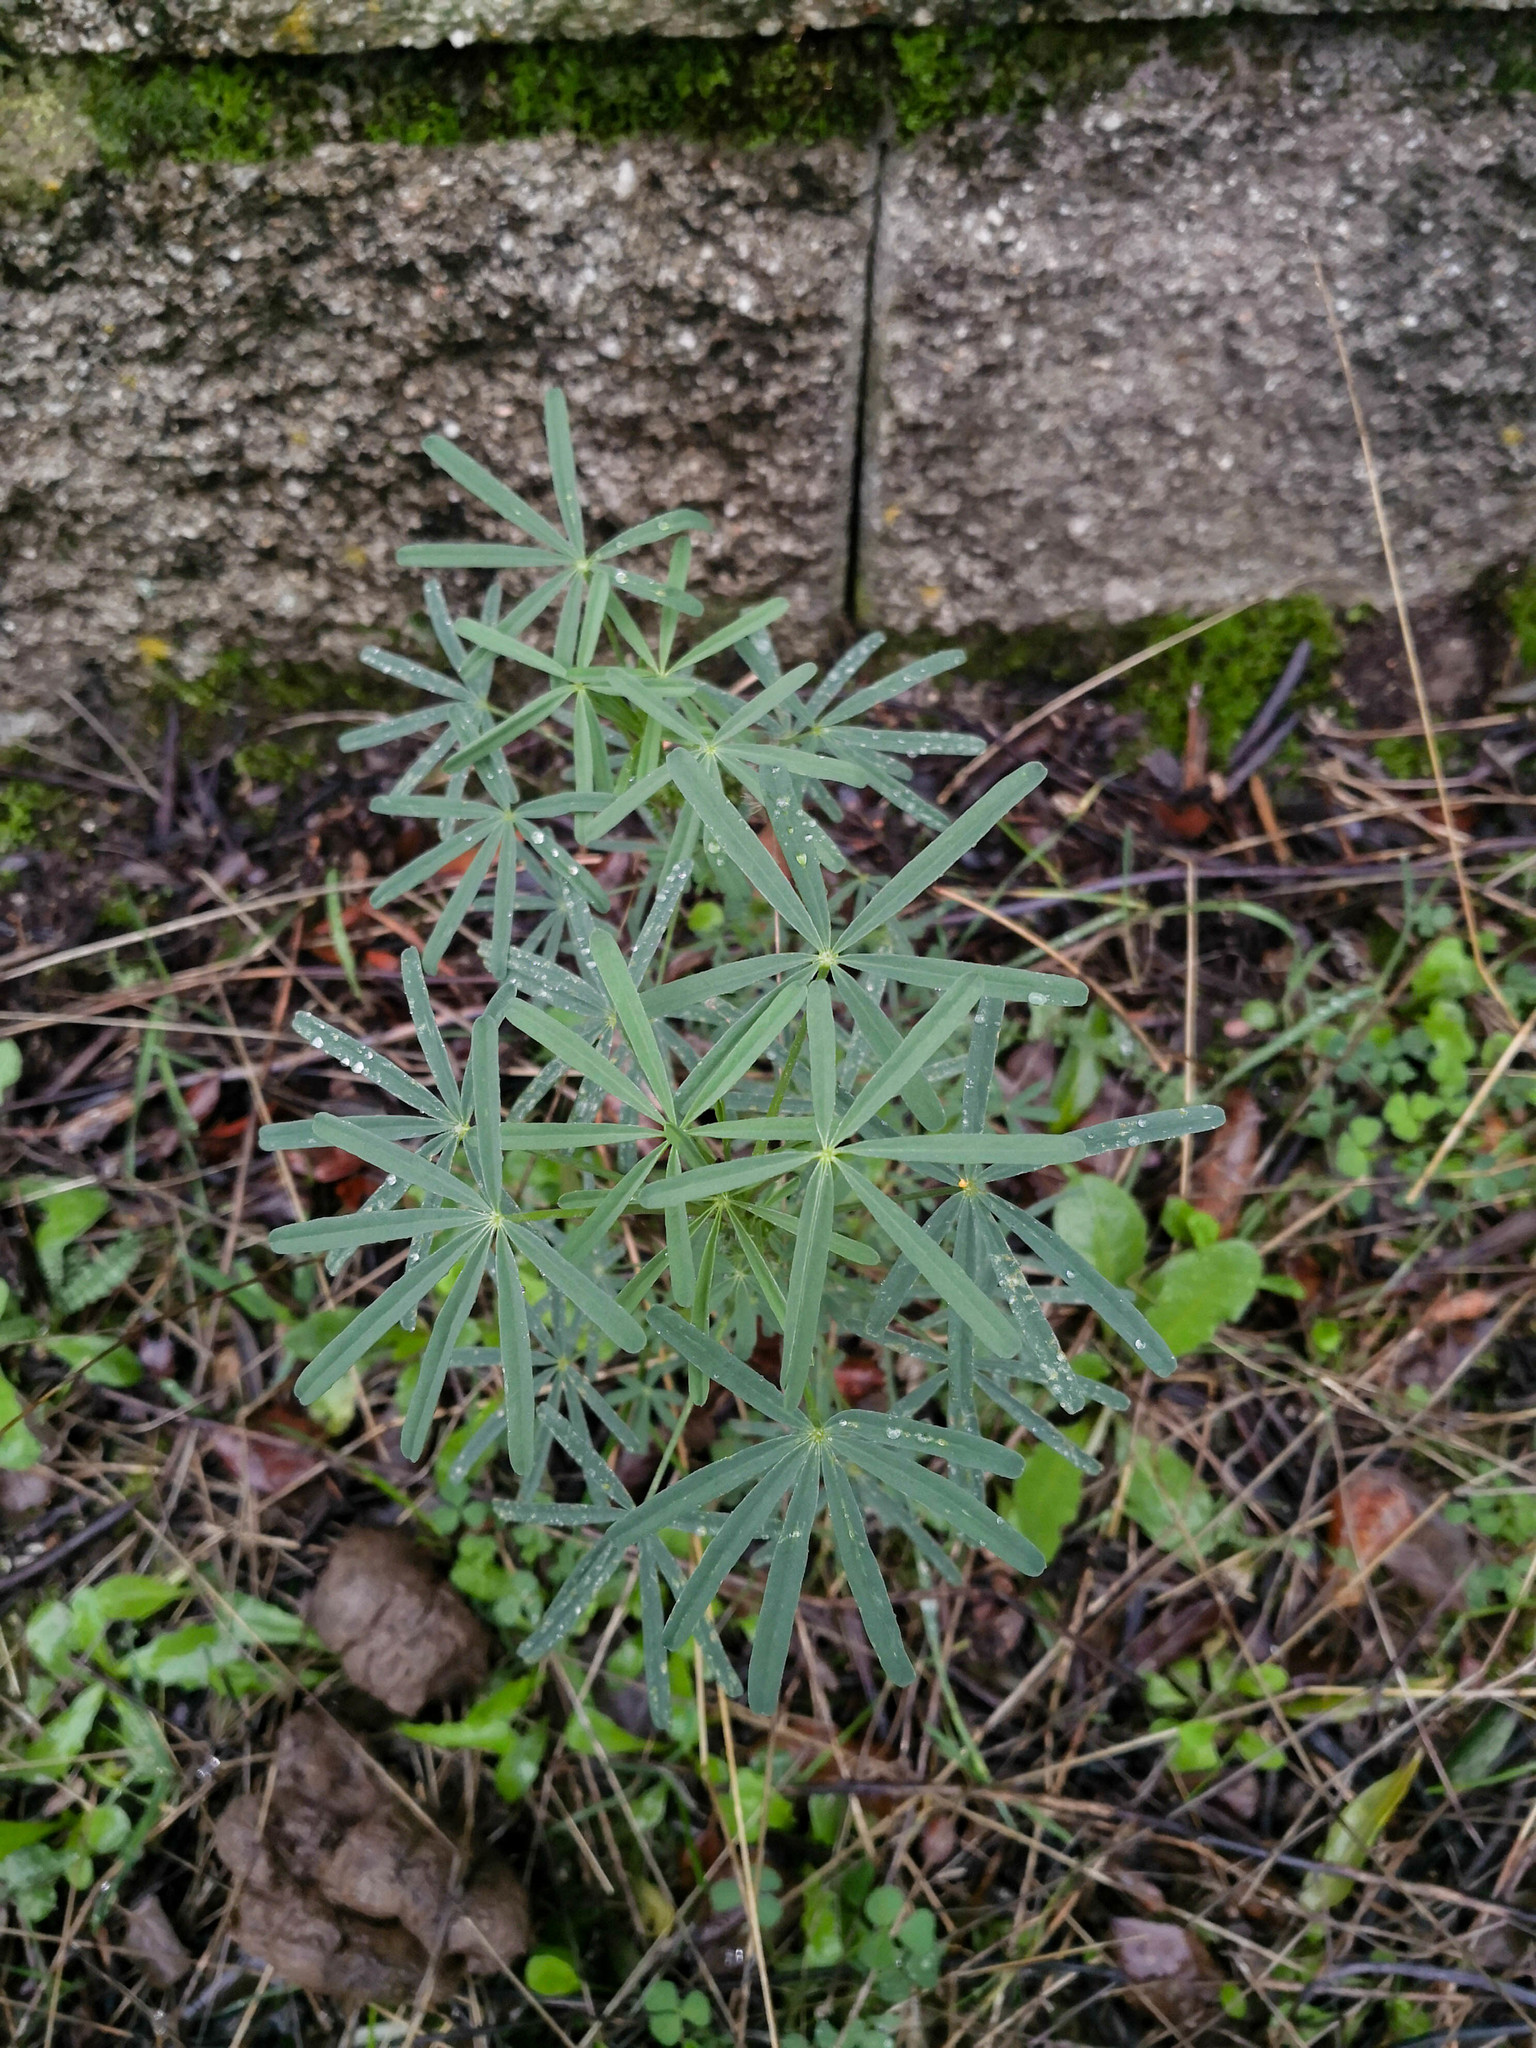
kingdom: Plantae
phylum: Tracheophyta
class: Magnoliopsida
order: Fabales
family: Fabaceae
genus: Lupinus
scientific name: Lupinus angustifolius
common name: Narrow-leaved lupin
